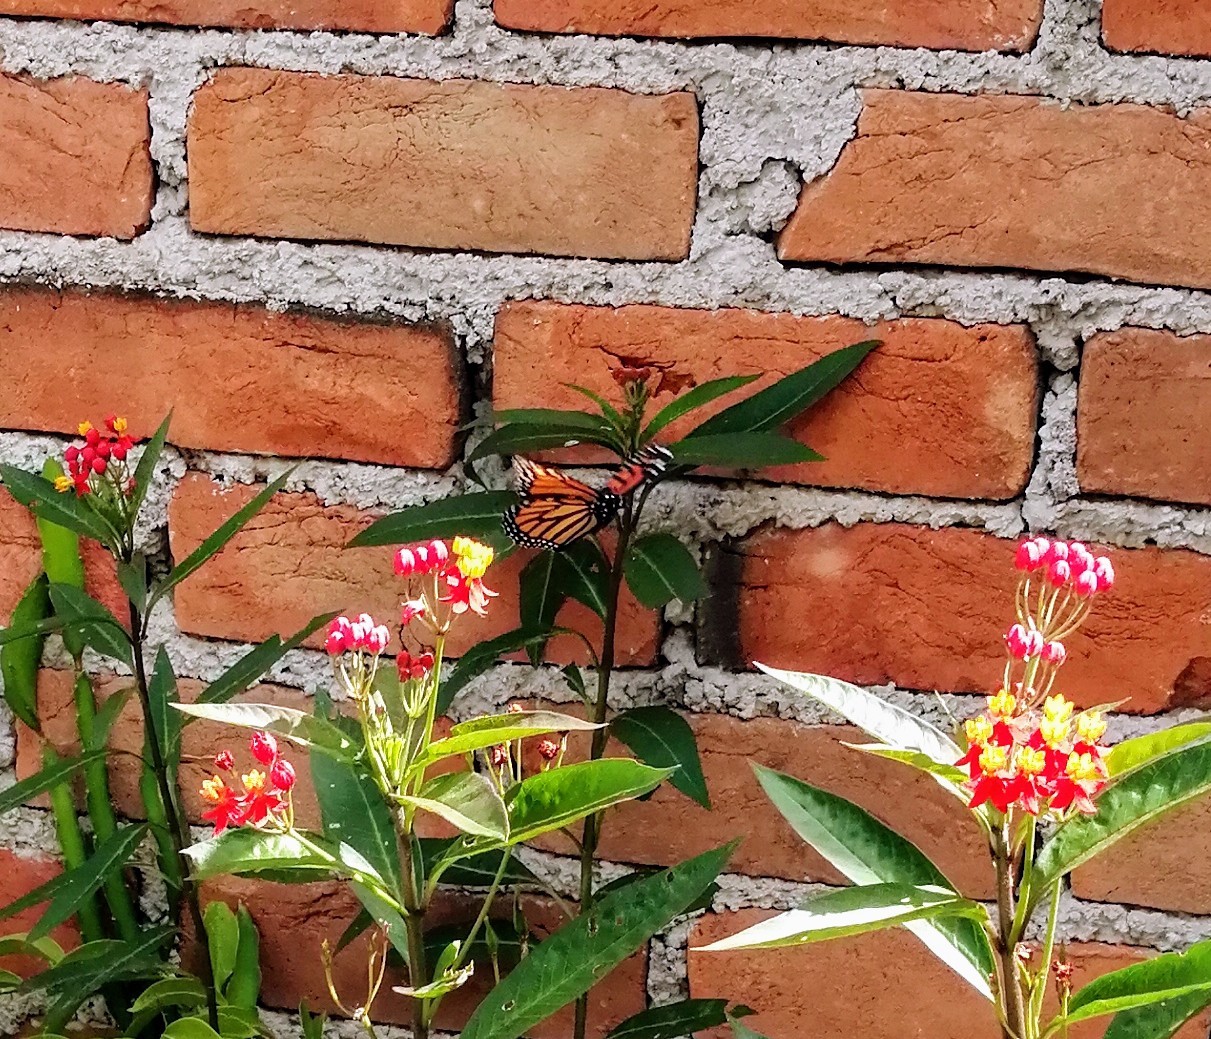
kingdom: Animalia
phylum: Arthropoda
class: Insecta
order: Lepidoptera
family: Nymphalidae
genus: Danaus
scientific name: Danaus plexippus
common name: Monarch
